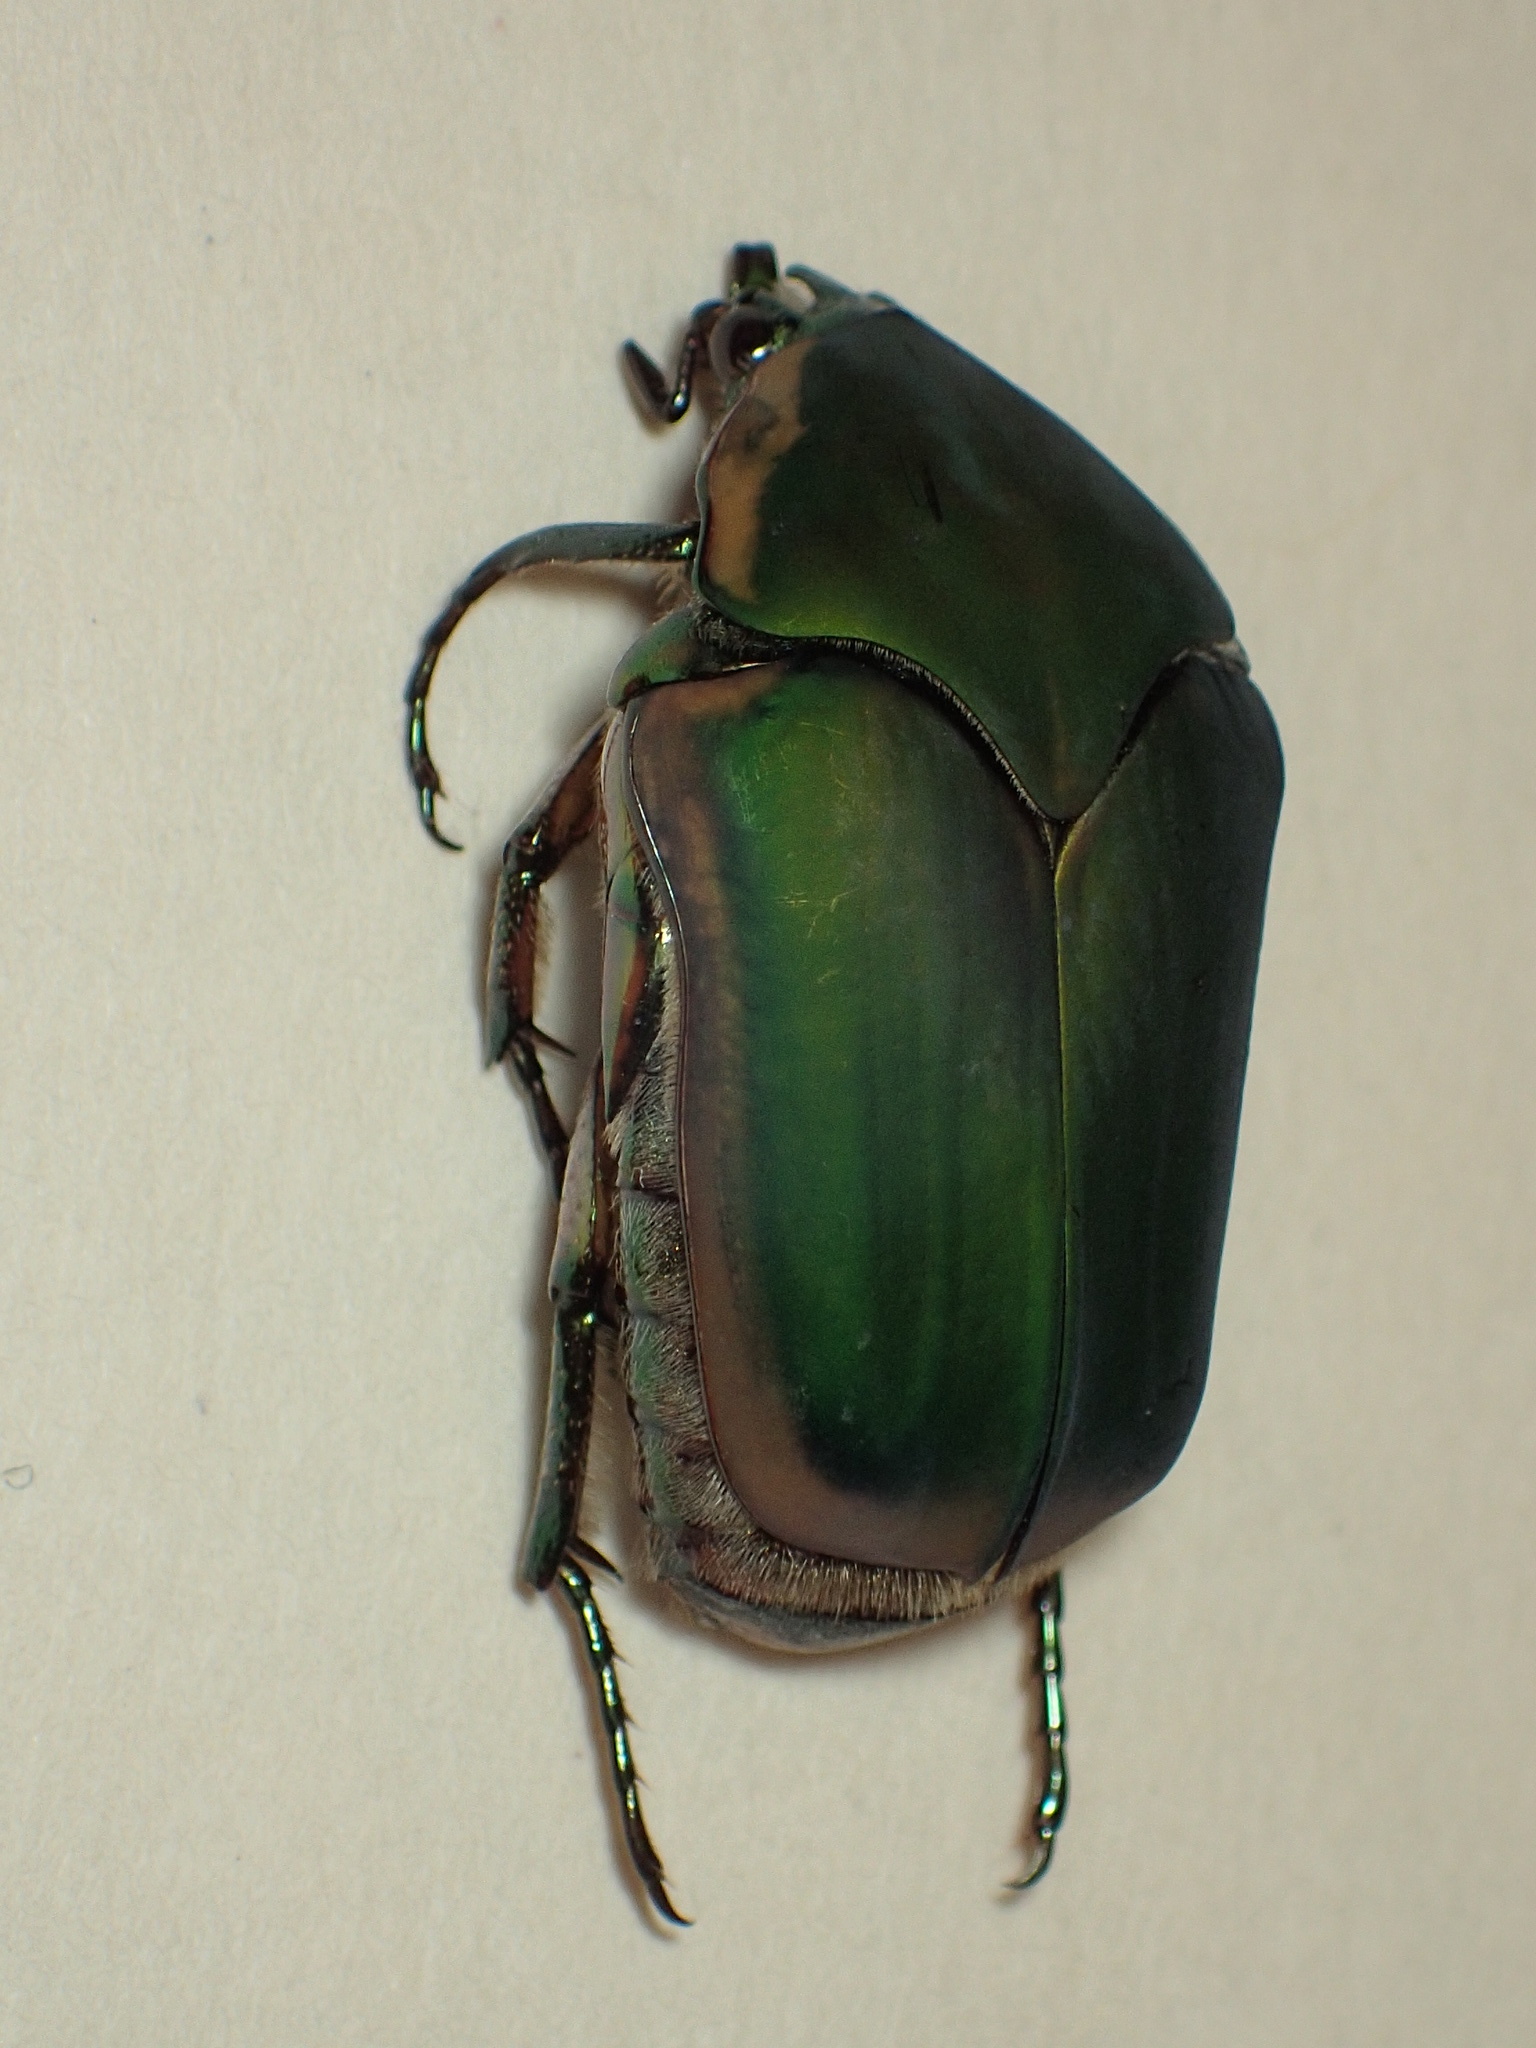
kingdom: Animalia
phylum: Arthropoda
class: Insecta
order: Coleoptera
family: Scarabaeidae
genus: Cotinis
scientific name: Cotinis nitida
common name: Common green june beetle
